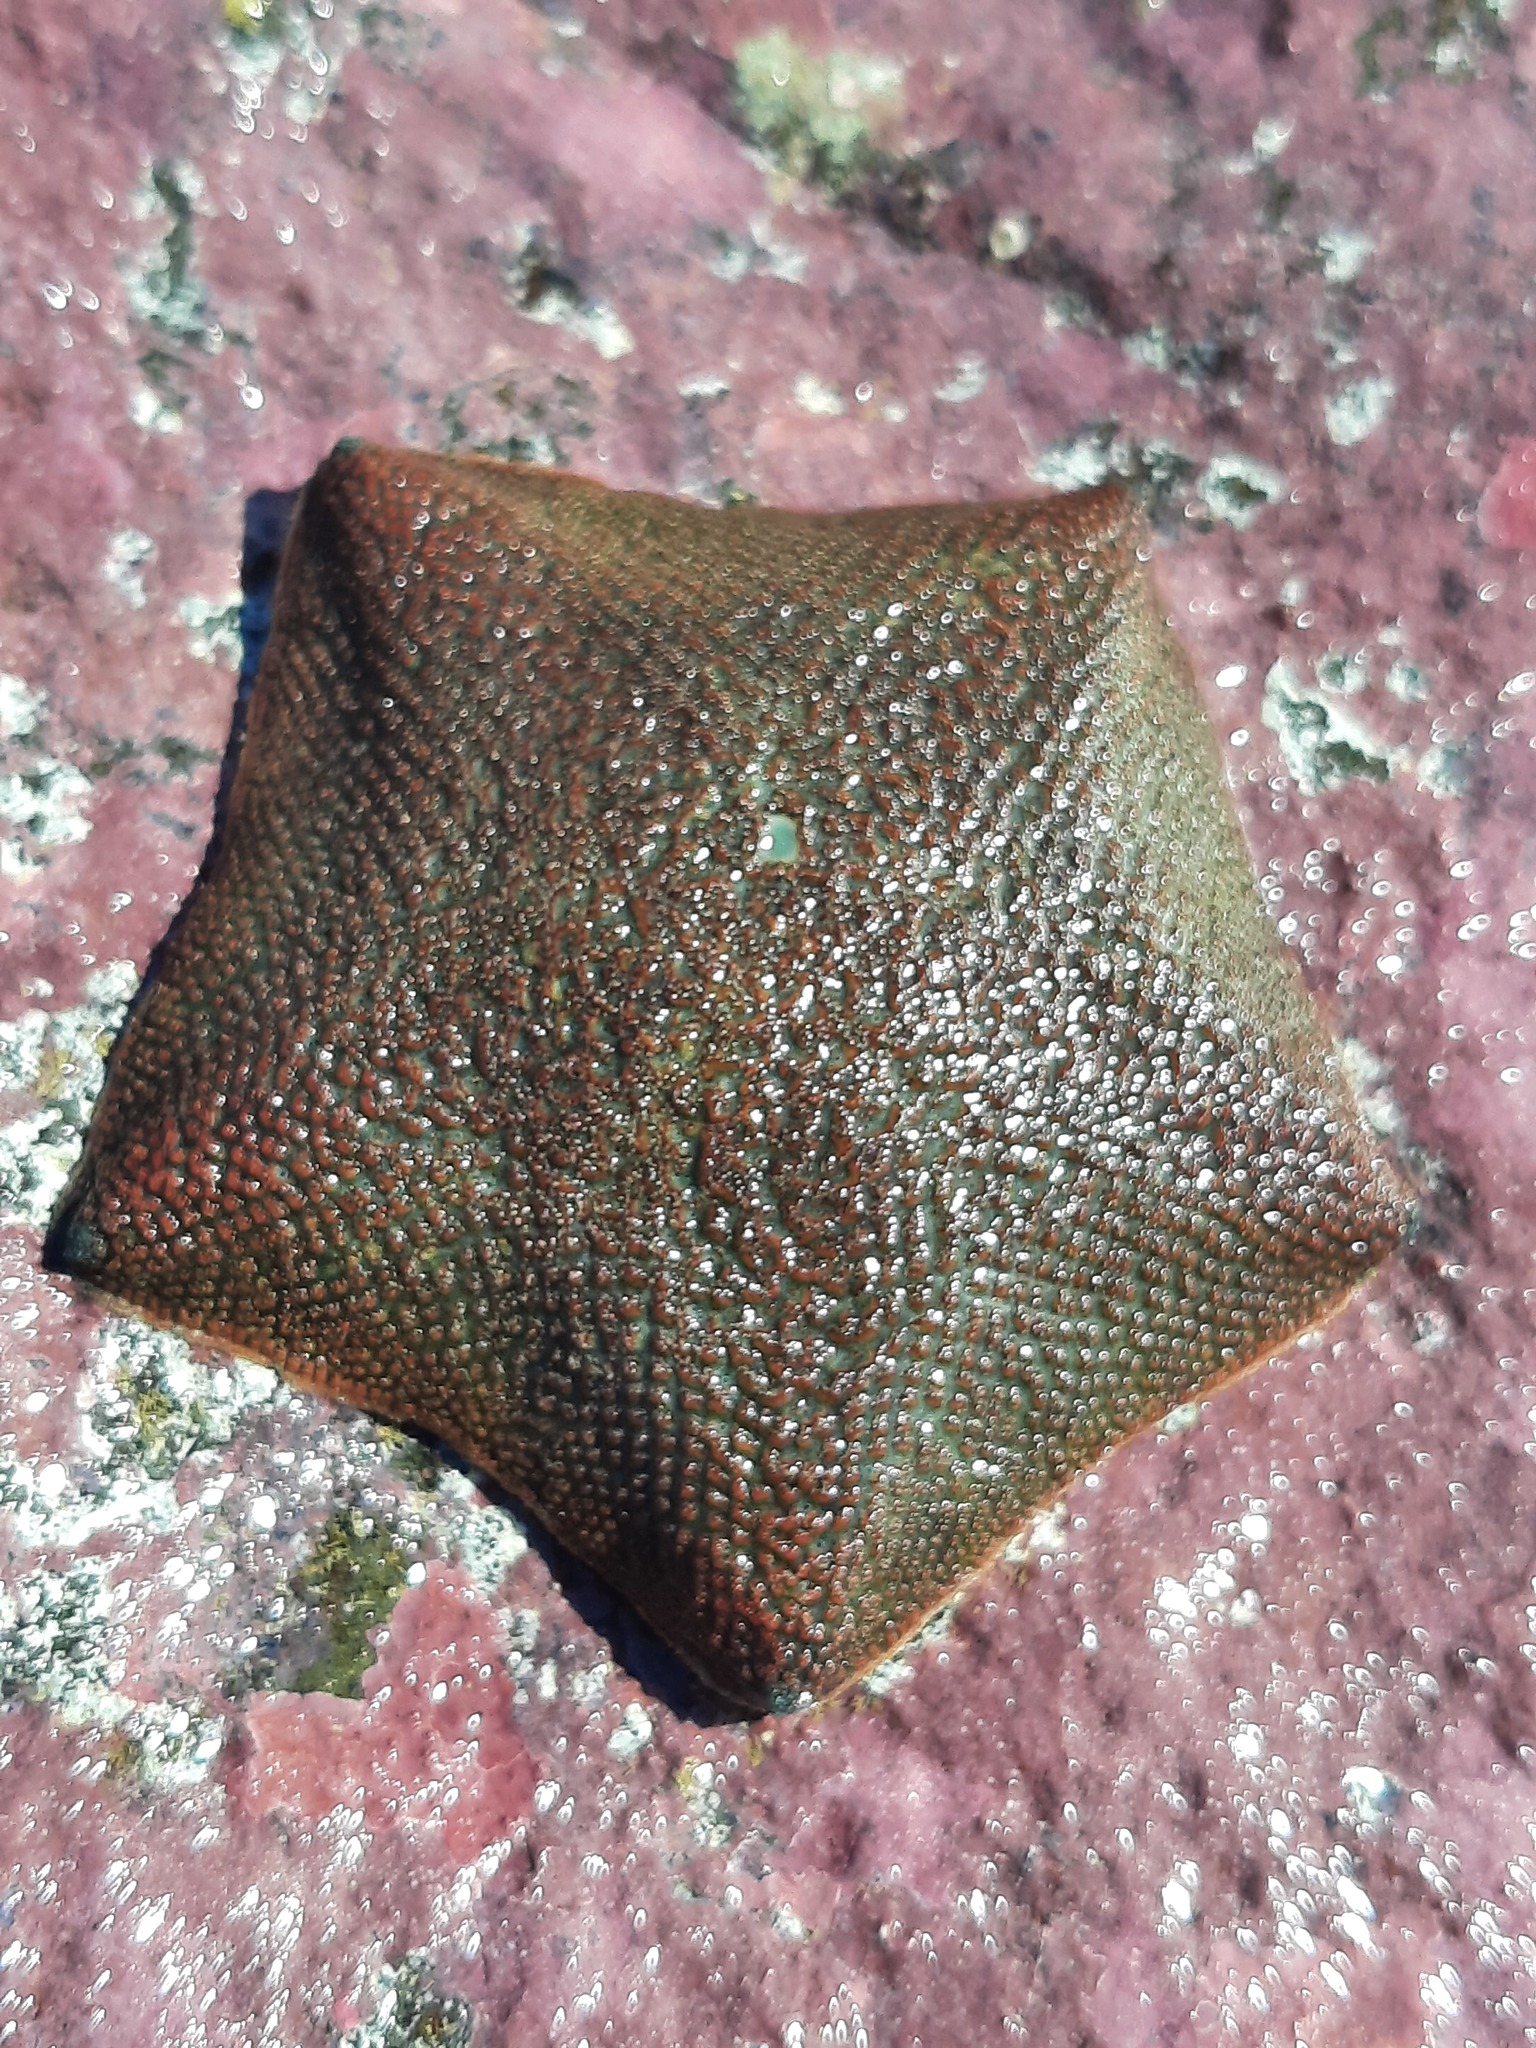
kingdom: Animalia
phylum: Echinodermata
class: Asteroidea
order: Valvatida
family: Asterinidae
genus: Patiriella
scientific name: Patiriella regularis
